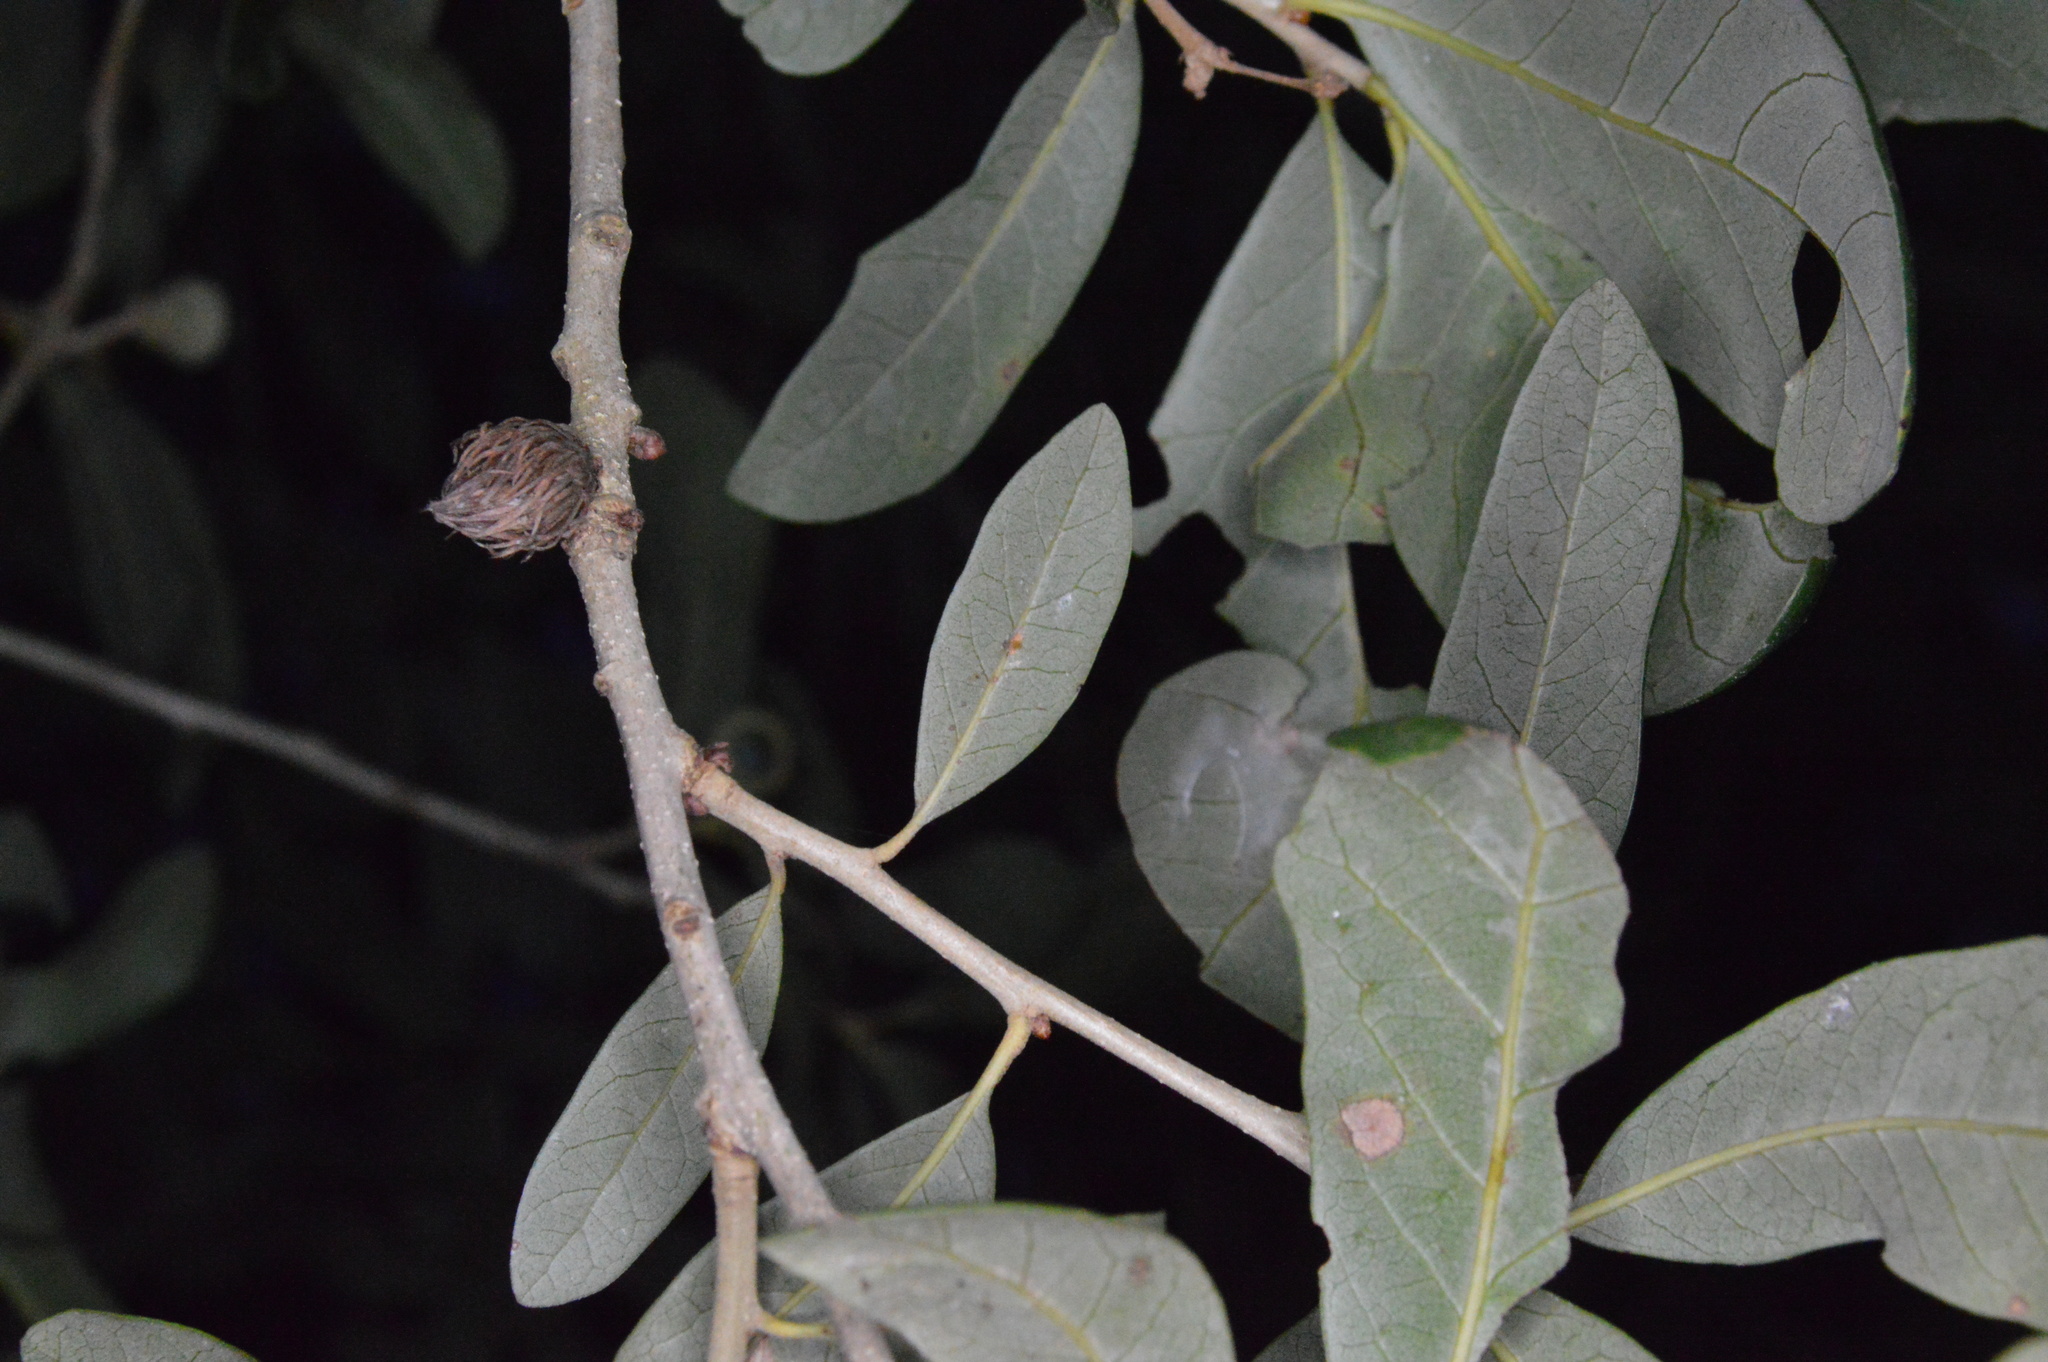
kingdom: Animalia
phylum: Arthropoda
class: Insecta
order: Hymenoptera
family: Cynipidae
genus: Andricus
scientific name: Andricus quercusfoliatus
